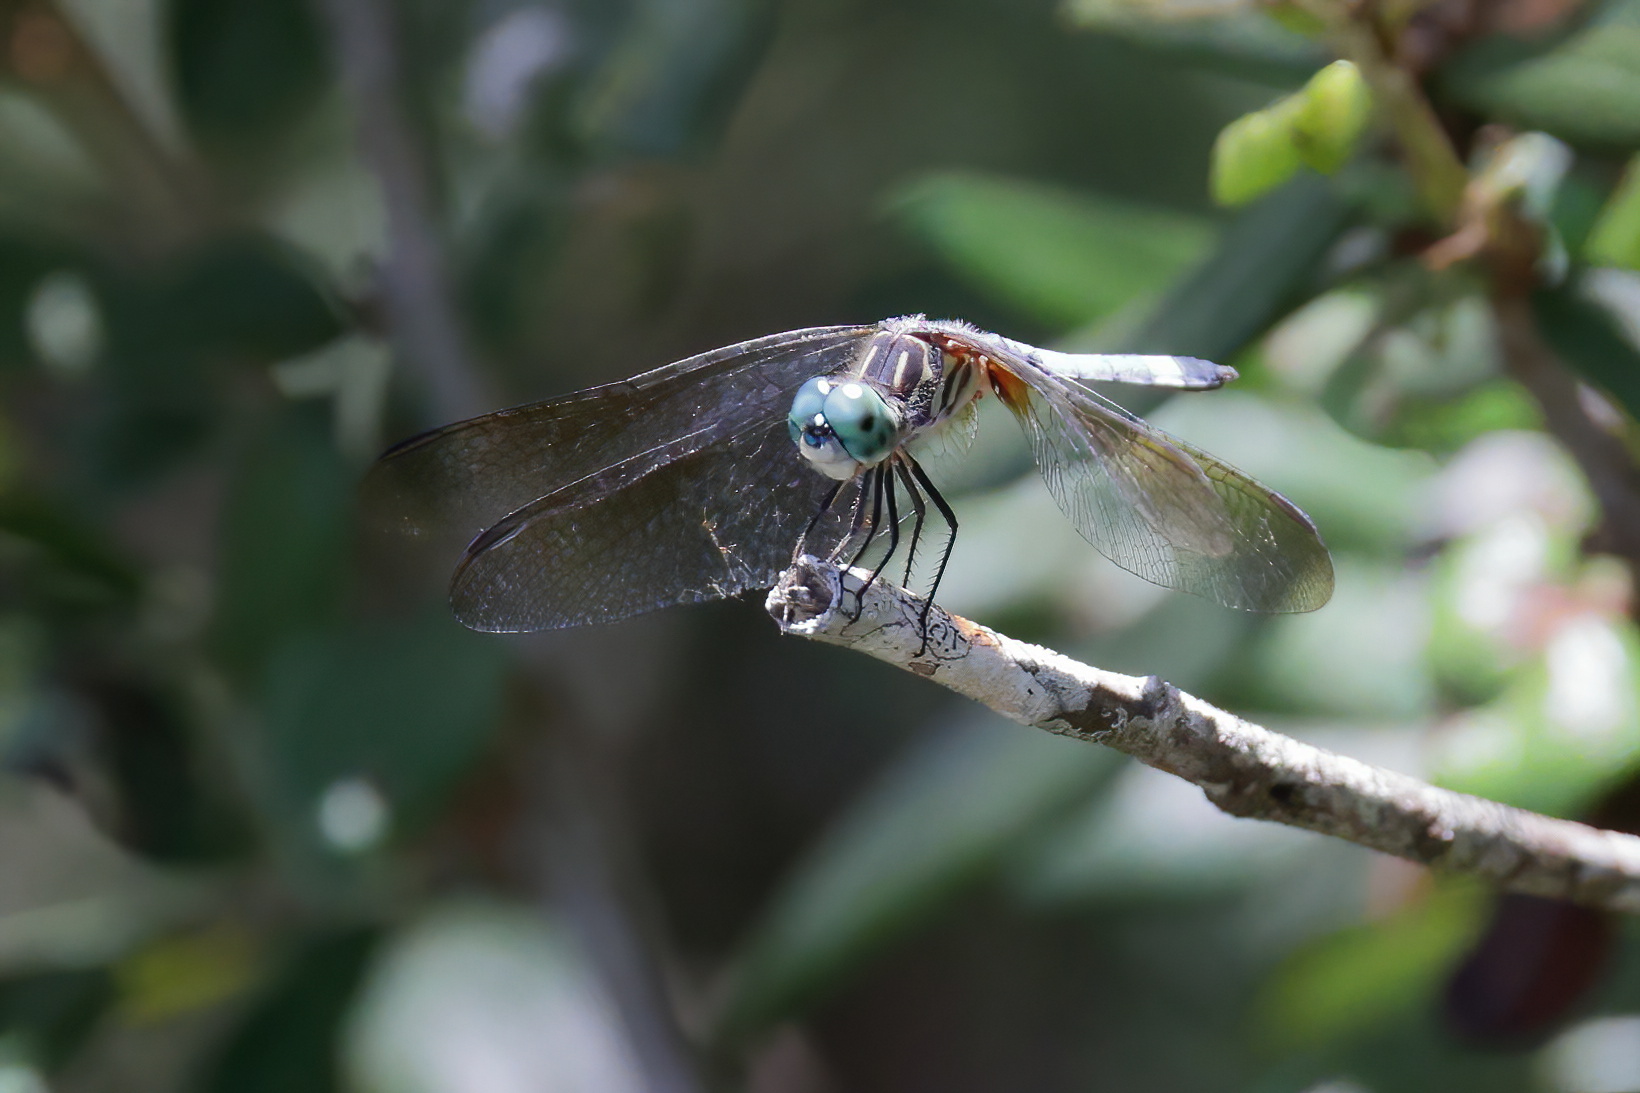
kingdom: Animalia
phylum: Arthropoda
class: Insecta
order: Odonata
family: Libellulidae
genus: Pachydiplax
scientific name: Pachydiplax longipennis
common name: Blue dasher
